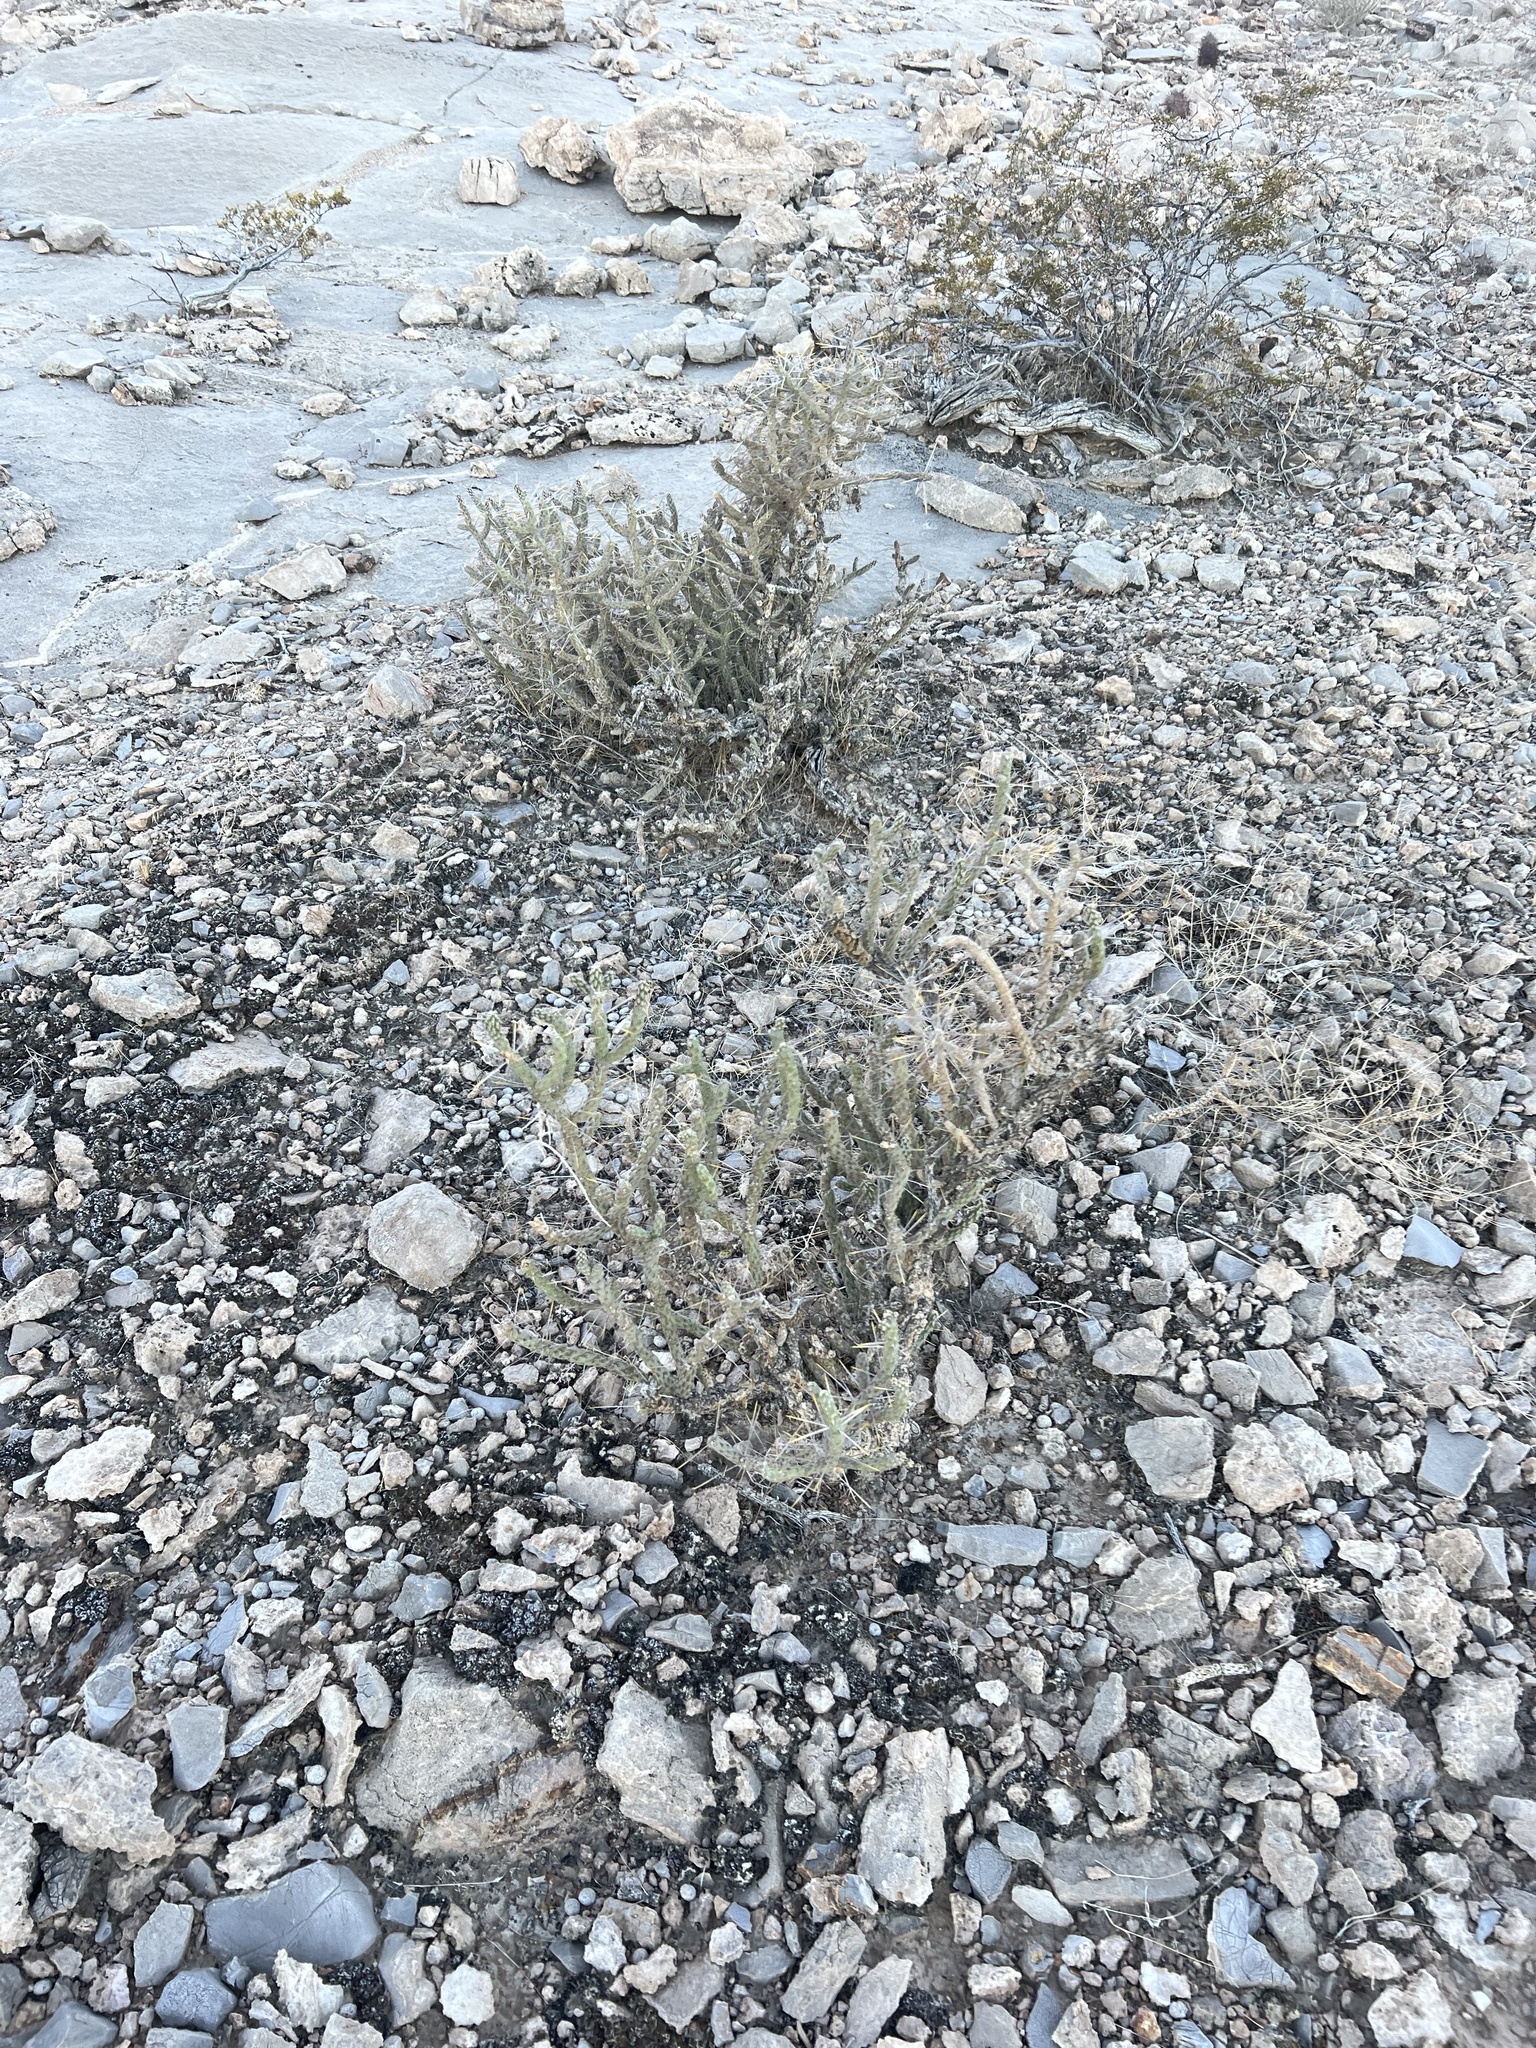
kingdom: Plantae
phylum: Tracheophyta
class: Magnoliopsida
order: Caryophyllales
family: Cactaceae
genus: Cylindropuntia
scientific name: Cylindropuntia ramosissima
